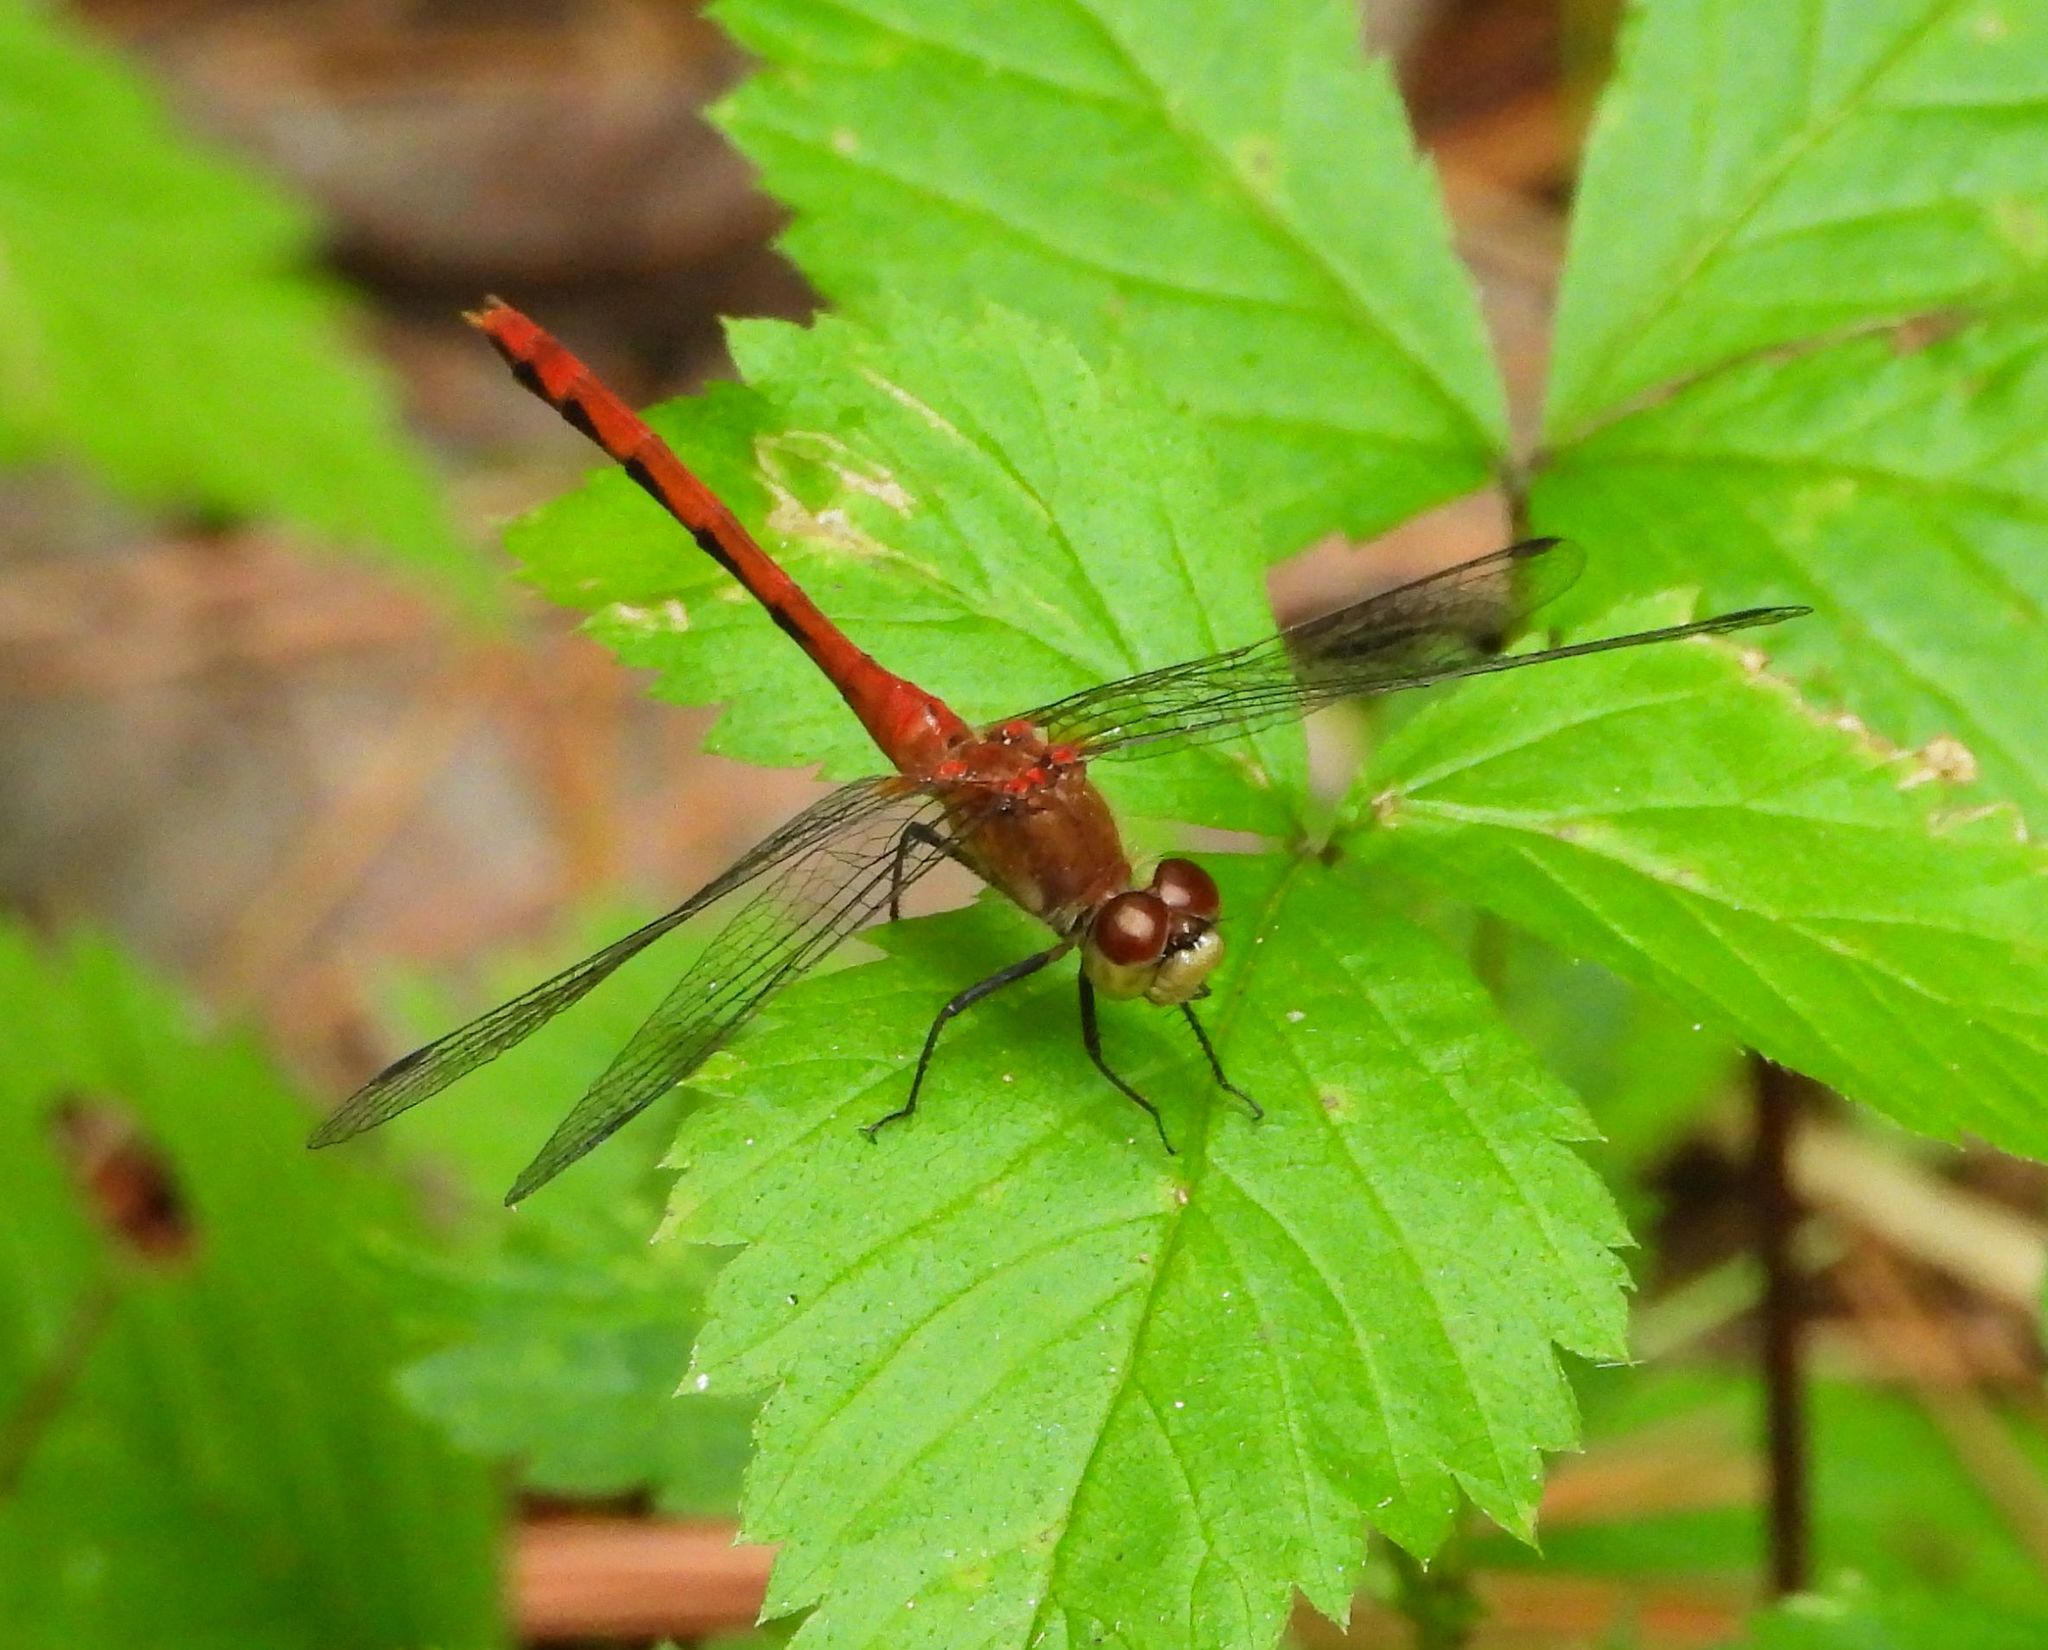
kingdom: Animalia
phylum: Arthropoda
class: Insecta
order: Odonata
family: Libellulidae
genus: Sympetrum
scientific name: Sympetrum obtrusum
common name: White-faced meadowhawk
